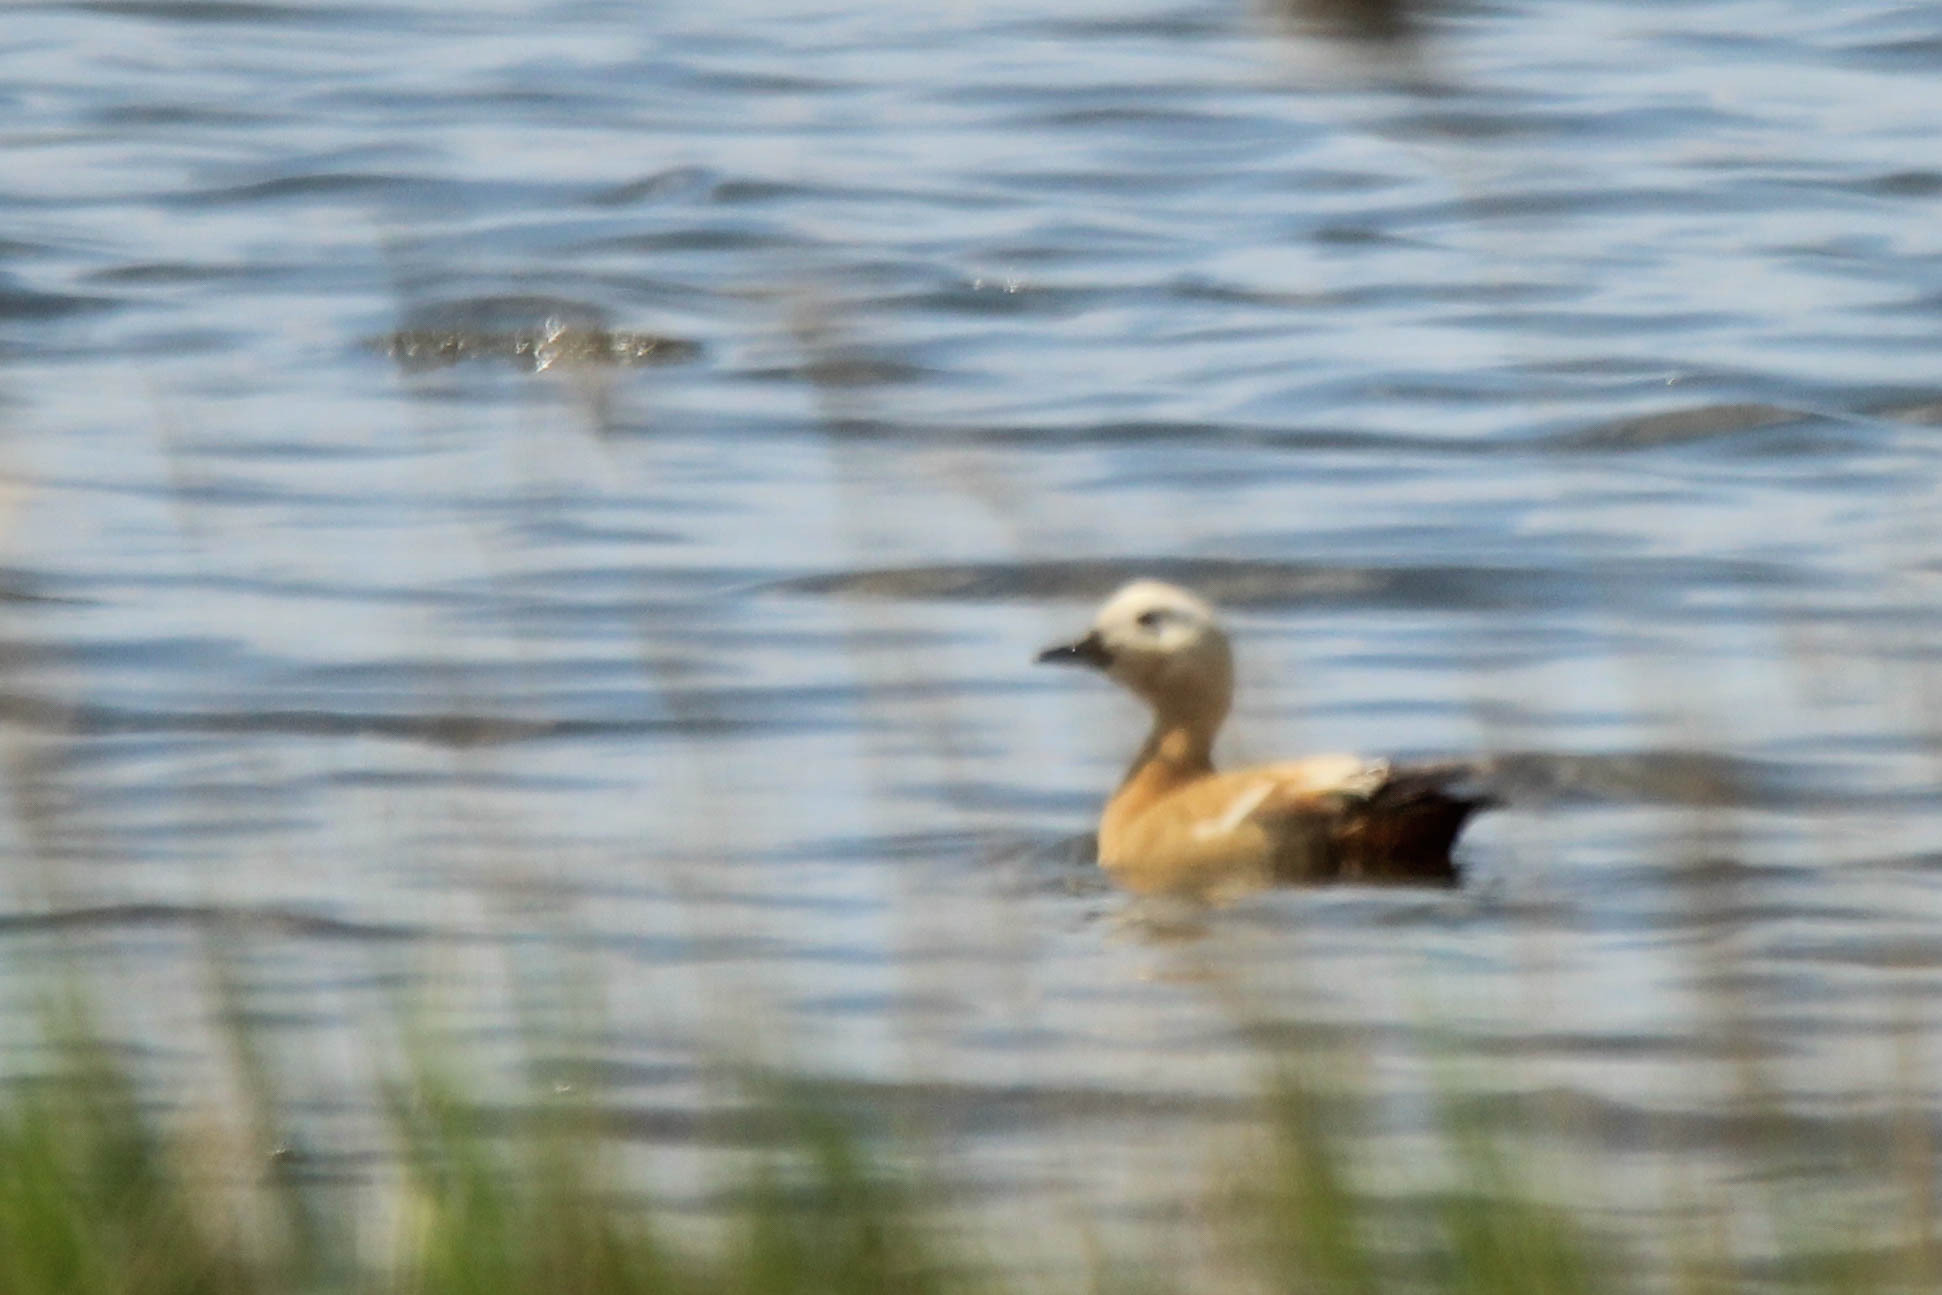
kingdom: Animalia
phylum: Chordata
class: Aves
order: Anseriformes
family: Anatidae
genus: Tadorna
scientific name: Tadorna ferruginea
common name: Ruddy shelduck
